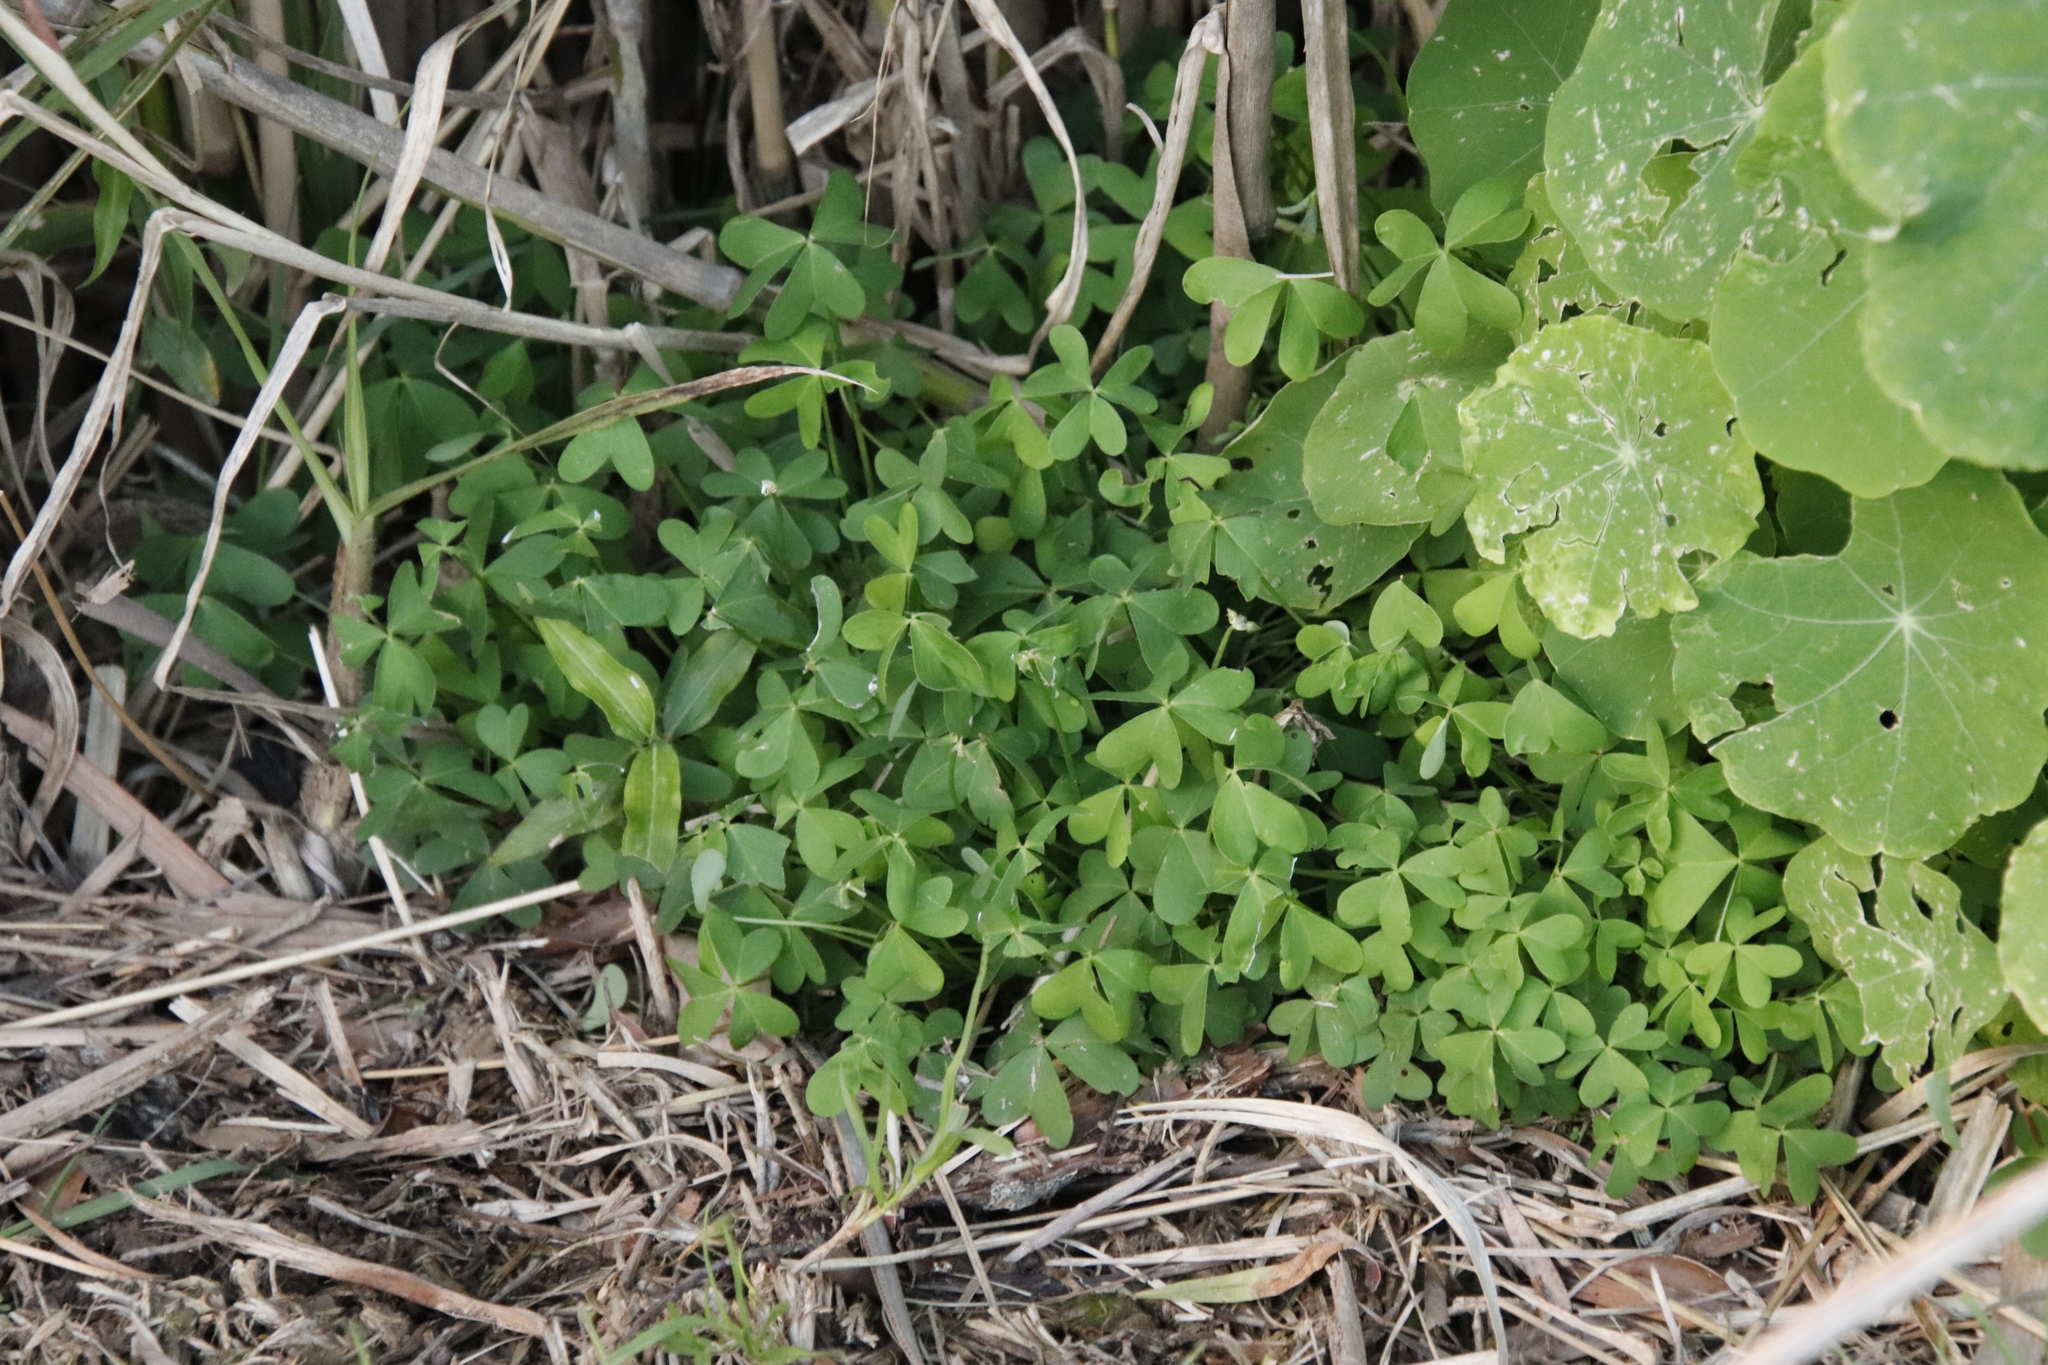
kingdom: Plantae
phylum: Tracheophyta
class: Magnoliopsida
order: Oxalidales
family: Oxalidaceae
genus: Oxalis
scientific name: Oxalis pes-caprae
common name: Bermuda-buttercup
